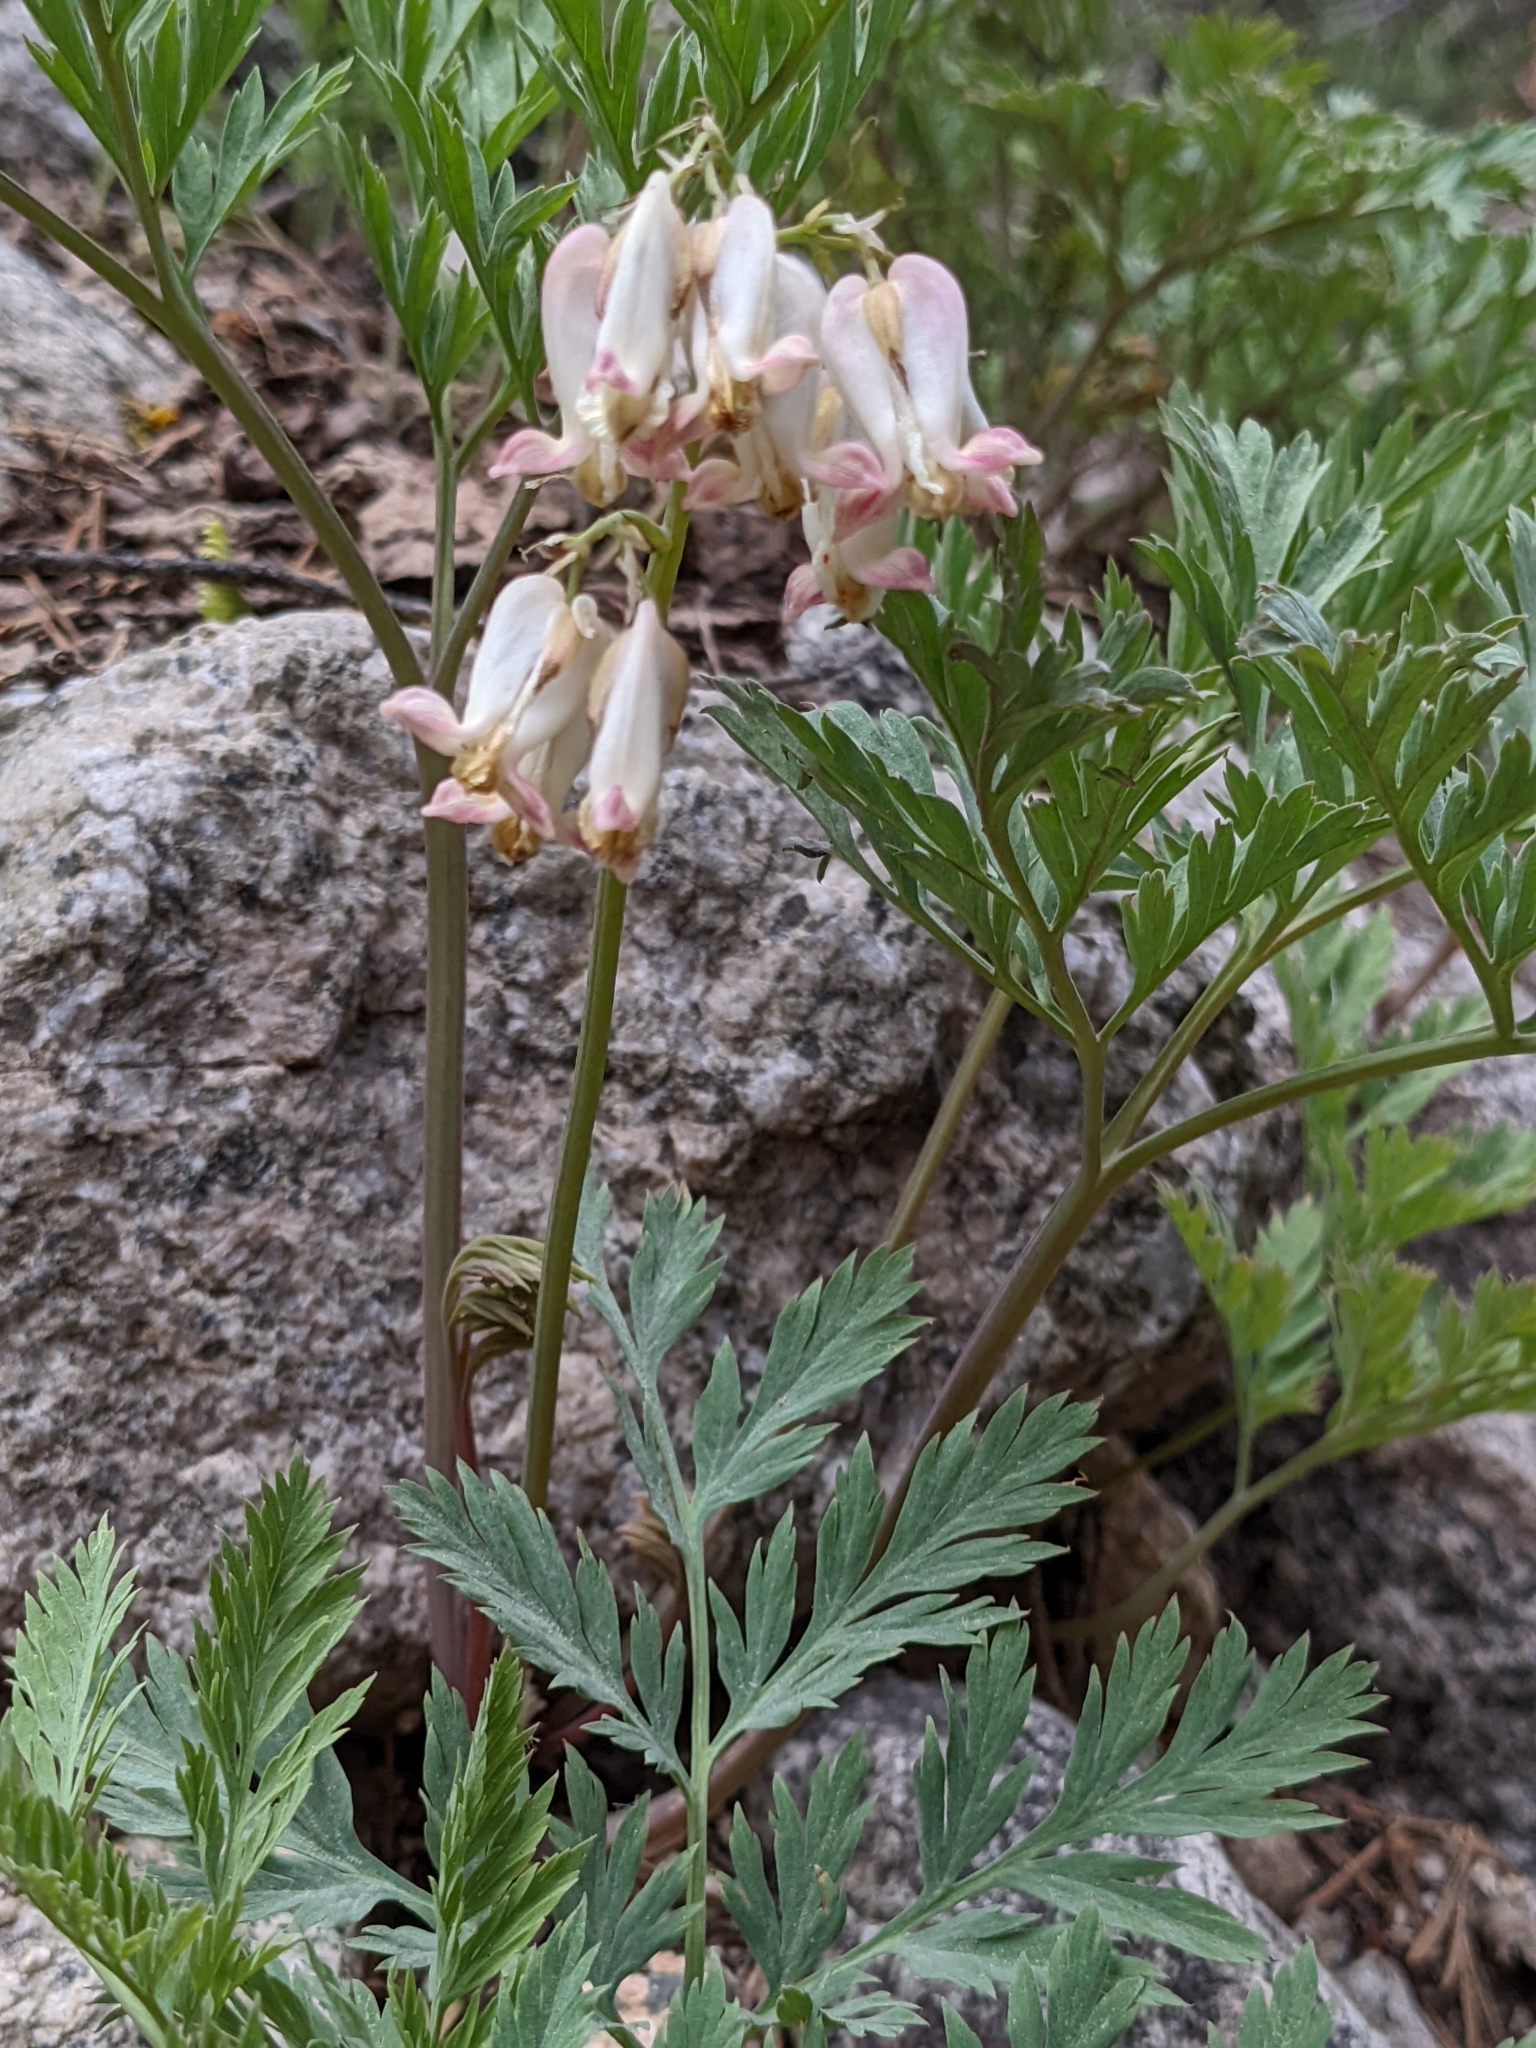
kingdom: Plantae
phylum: Tracheophyta
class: Magnoliopsida
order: Ranunculales
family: Papaveraceae
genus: Dicentra
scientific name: Dicentra formosa
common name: Bleeding-heart
